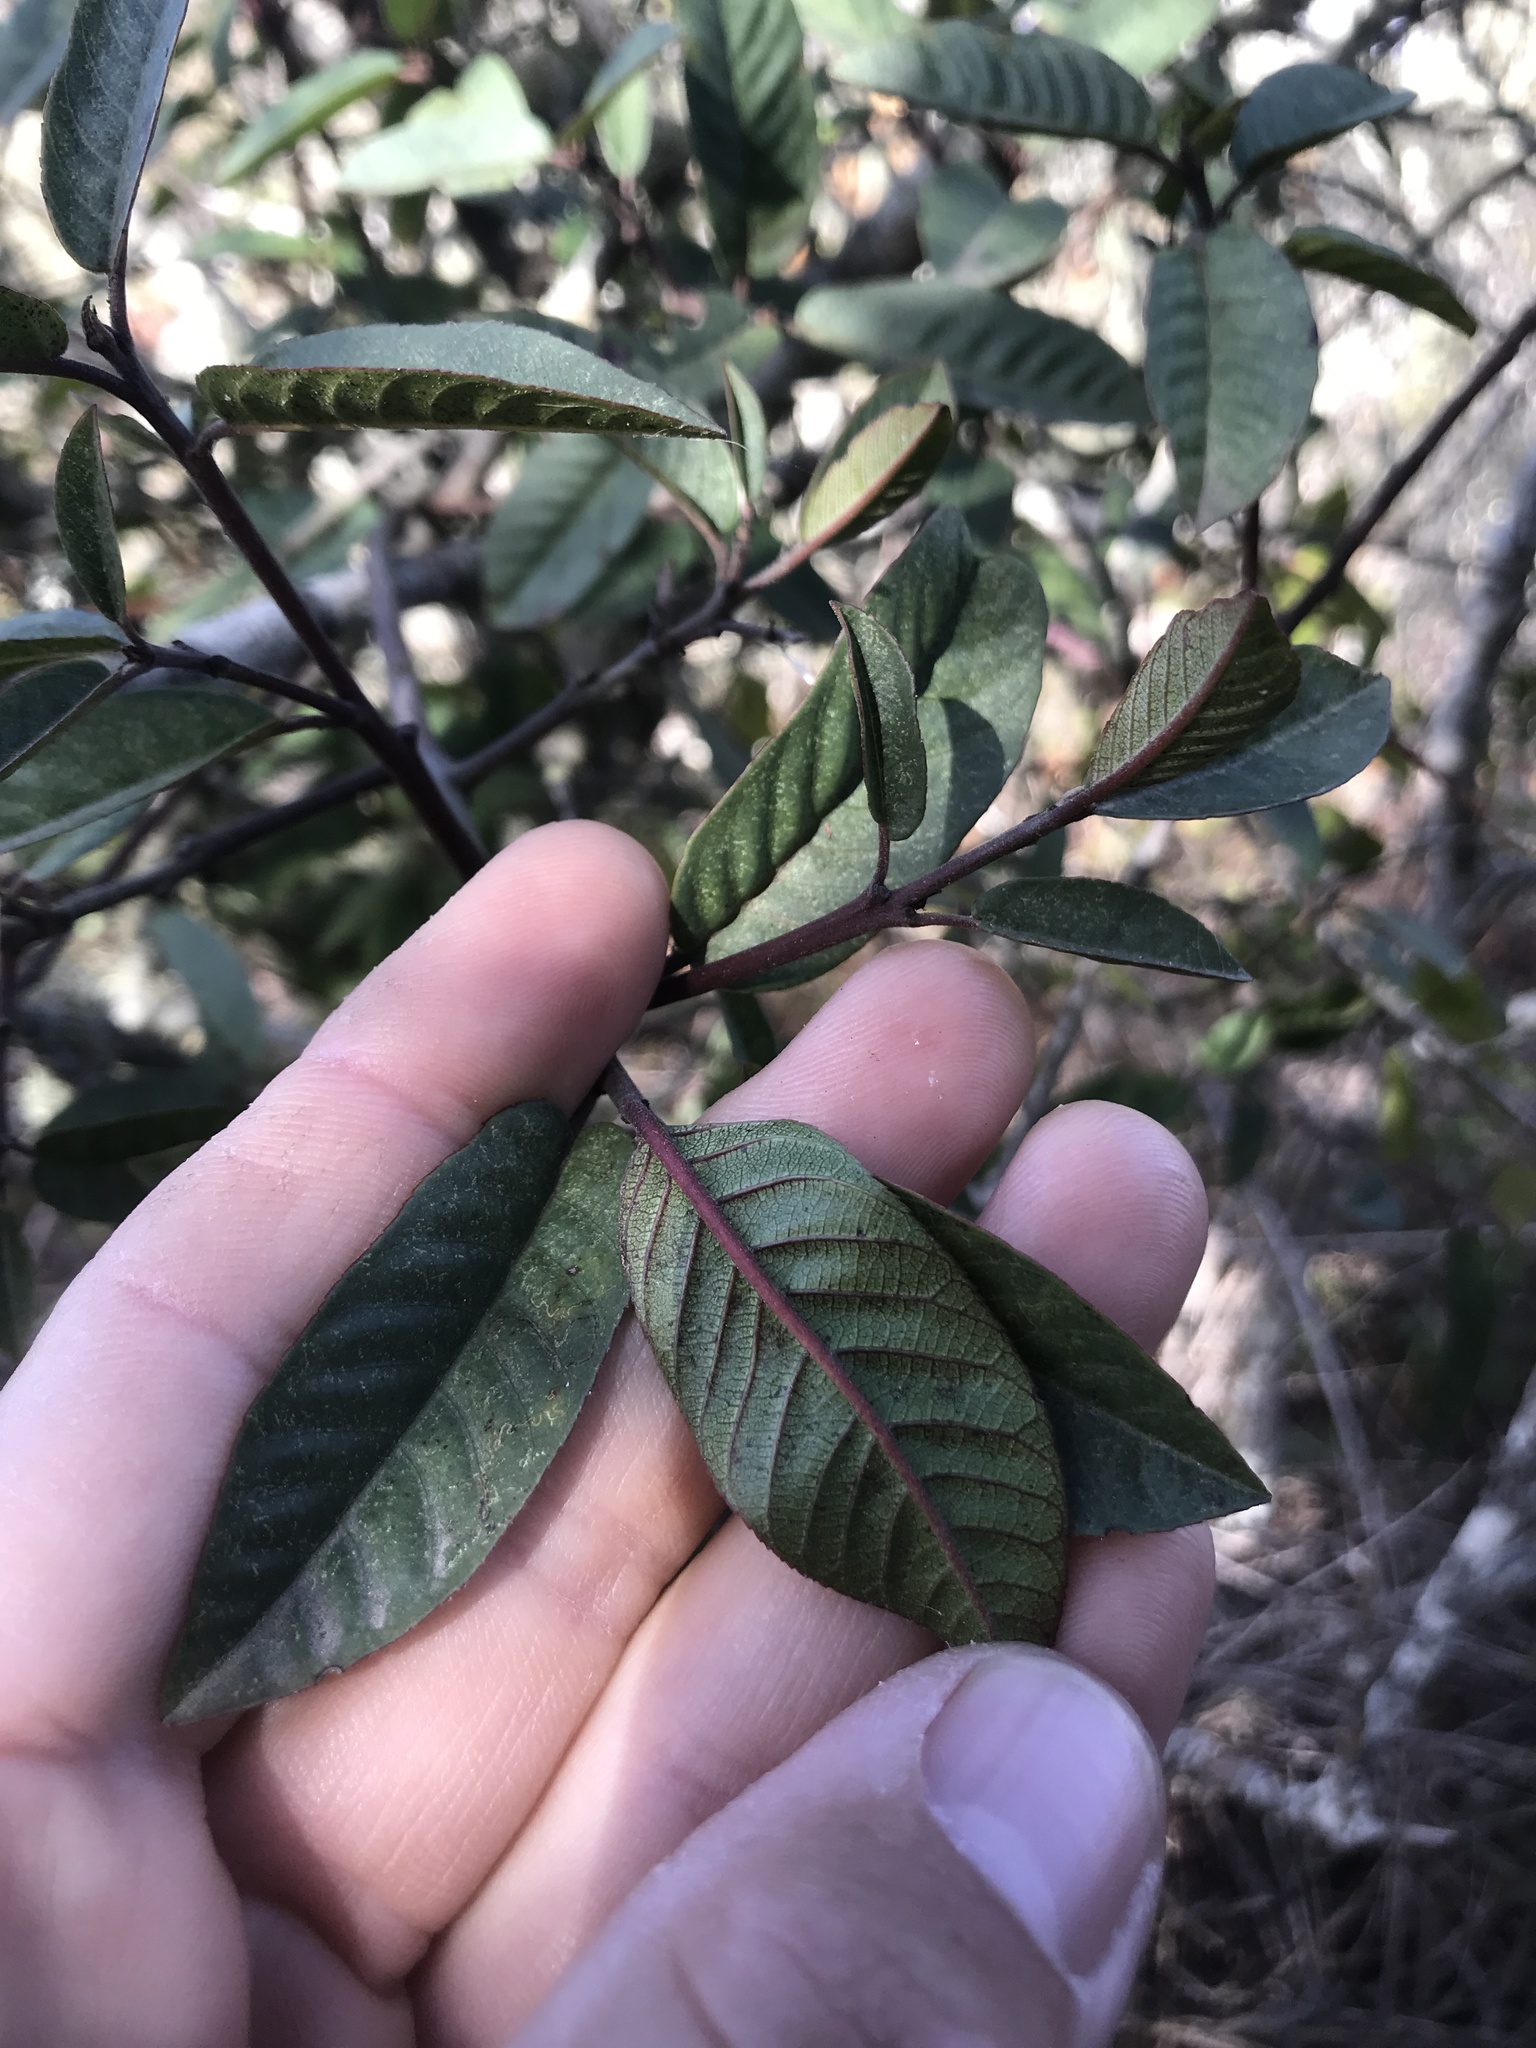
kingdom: Plantae
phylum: Tracheophyta
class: Magnoliopsida
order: Rosales
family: Rhamnaceae
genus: Frangula
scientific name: Frangula californica
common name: California buckthorn
